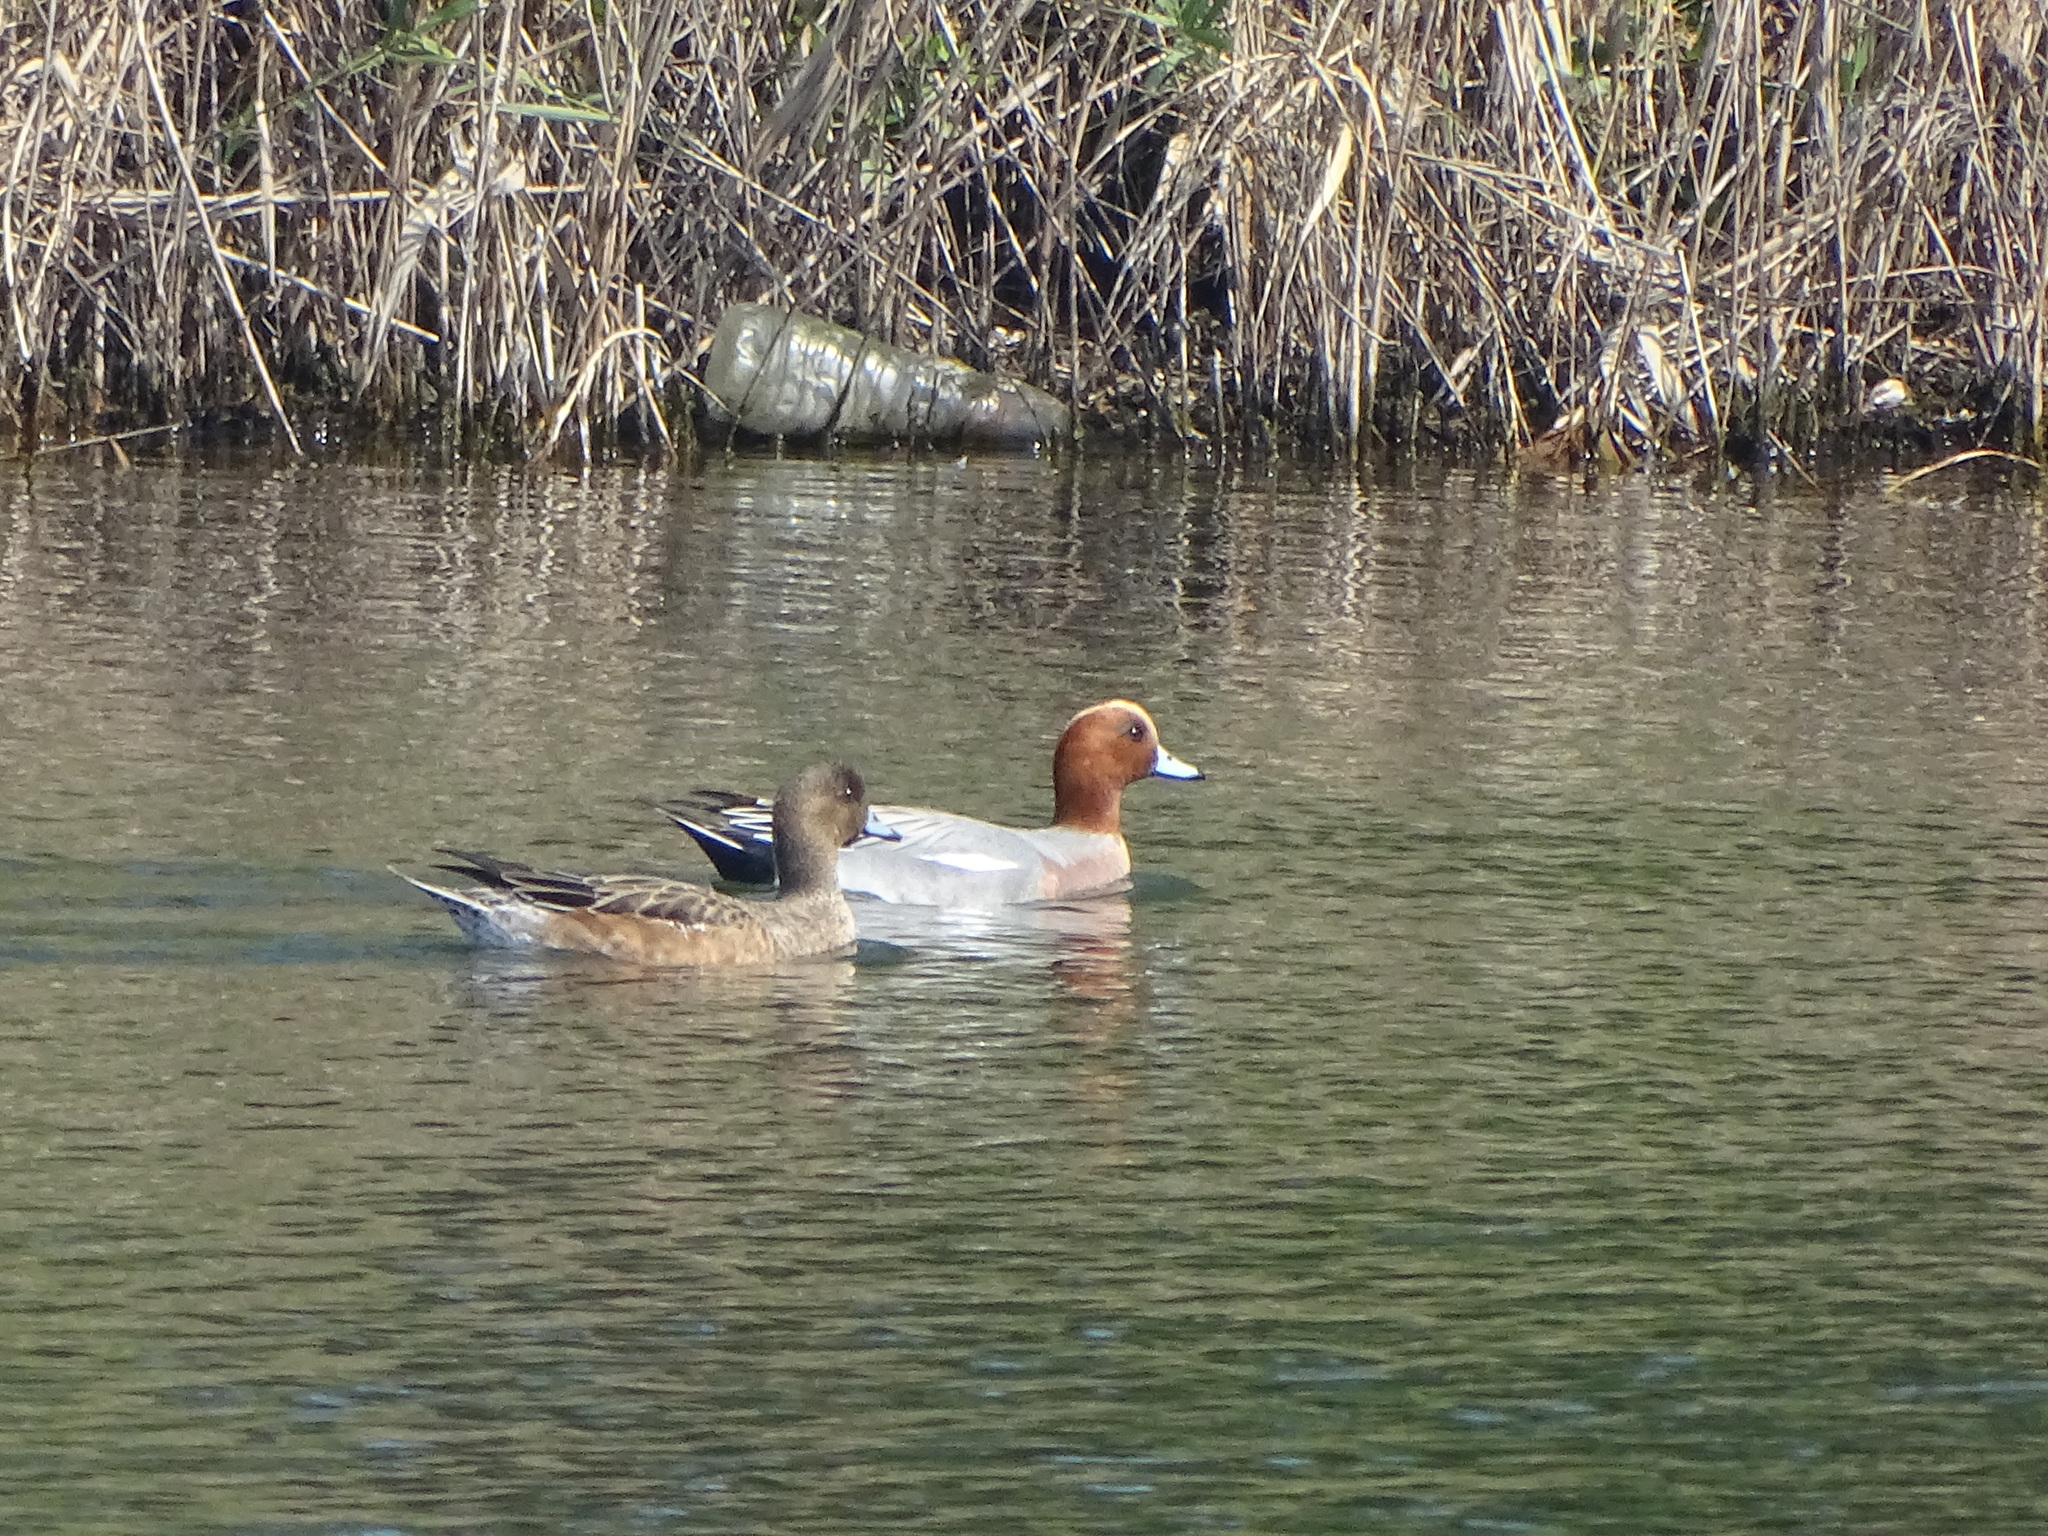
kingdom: Animalia
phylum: Chordata
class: Aves
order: Anseriformes
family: Anatidae
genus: Mareca
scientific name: Mareca penelope
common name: Eurasian wigeon
